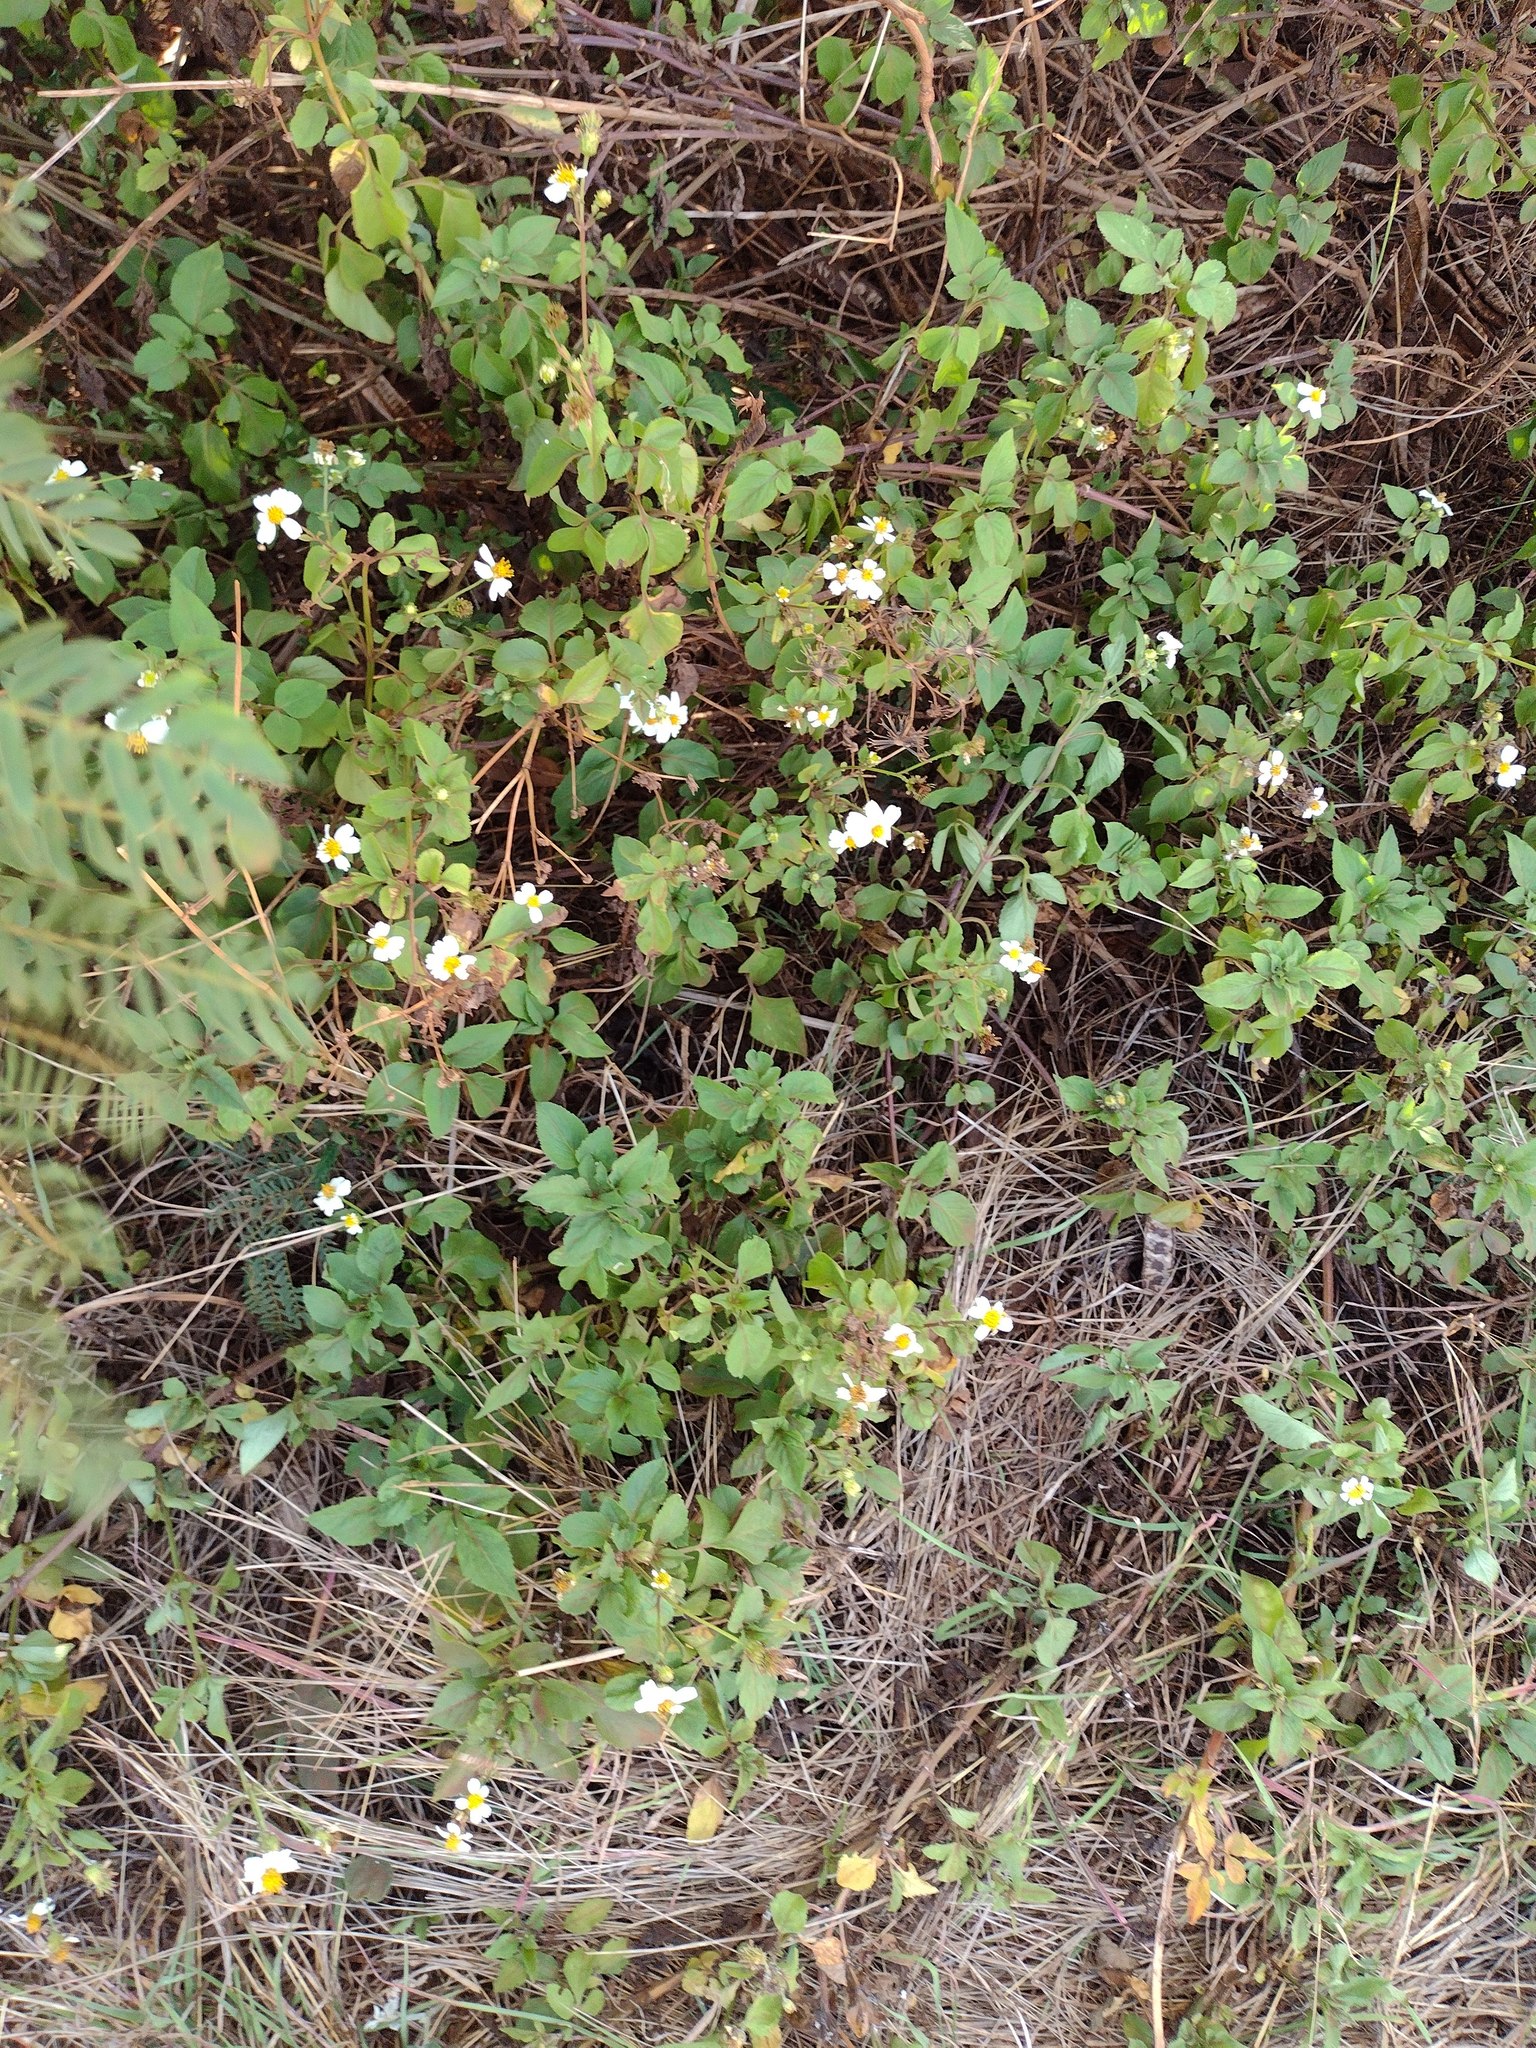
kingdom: Plantae
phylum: Tracheophyta
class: Magnoliopsida
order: Asterales
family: Asteraceae
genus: Bidens
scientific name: Bidens alba
